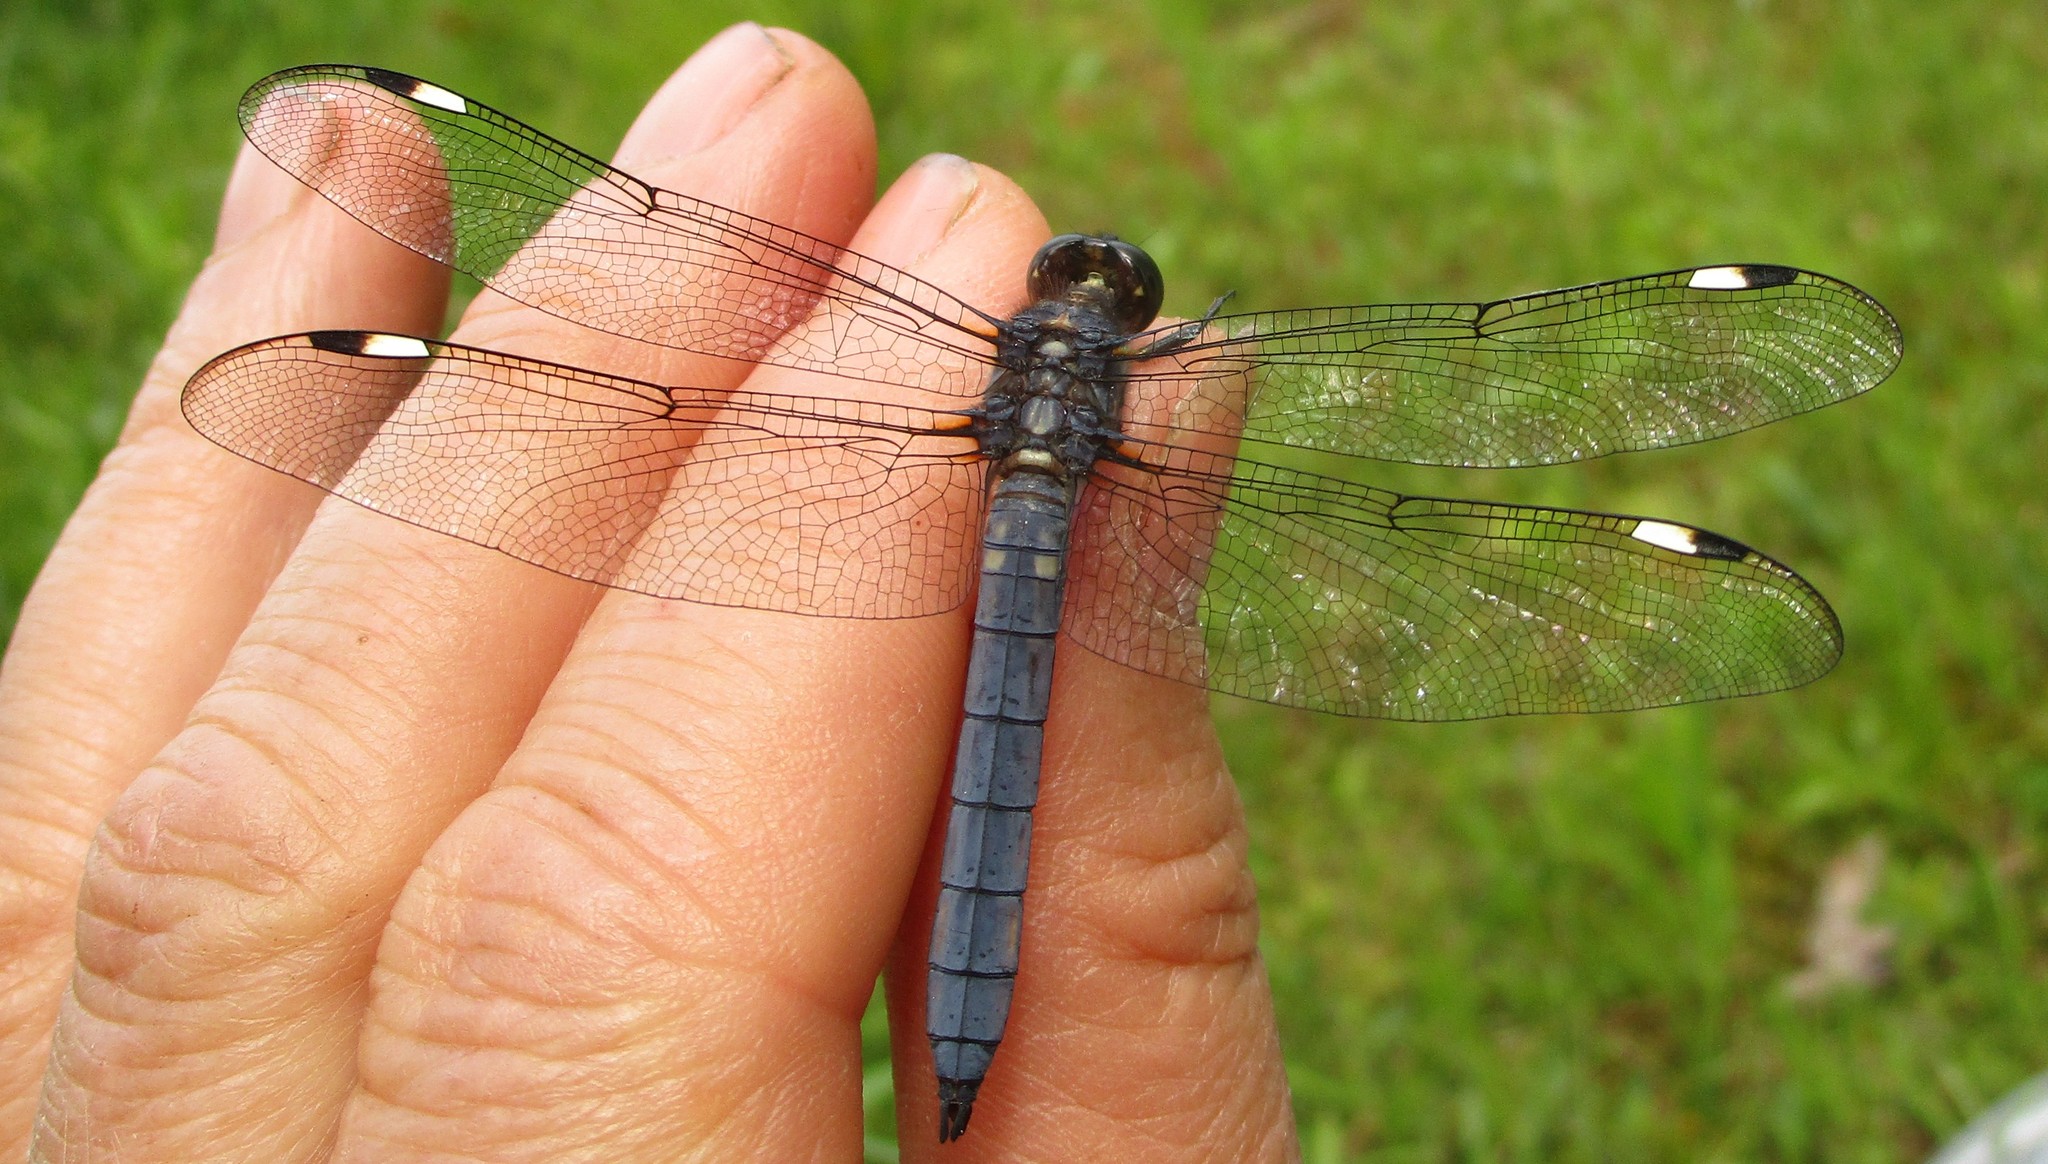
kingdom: Animalia
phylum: Arthropoda
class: Insecta
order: Odonata
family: Libellulidae
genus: Libellula
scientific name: Libellula cyanea
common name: Spangled skimmer
